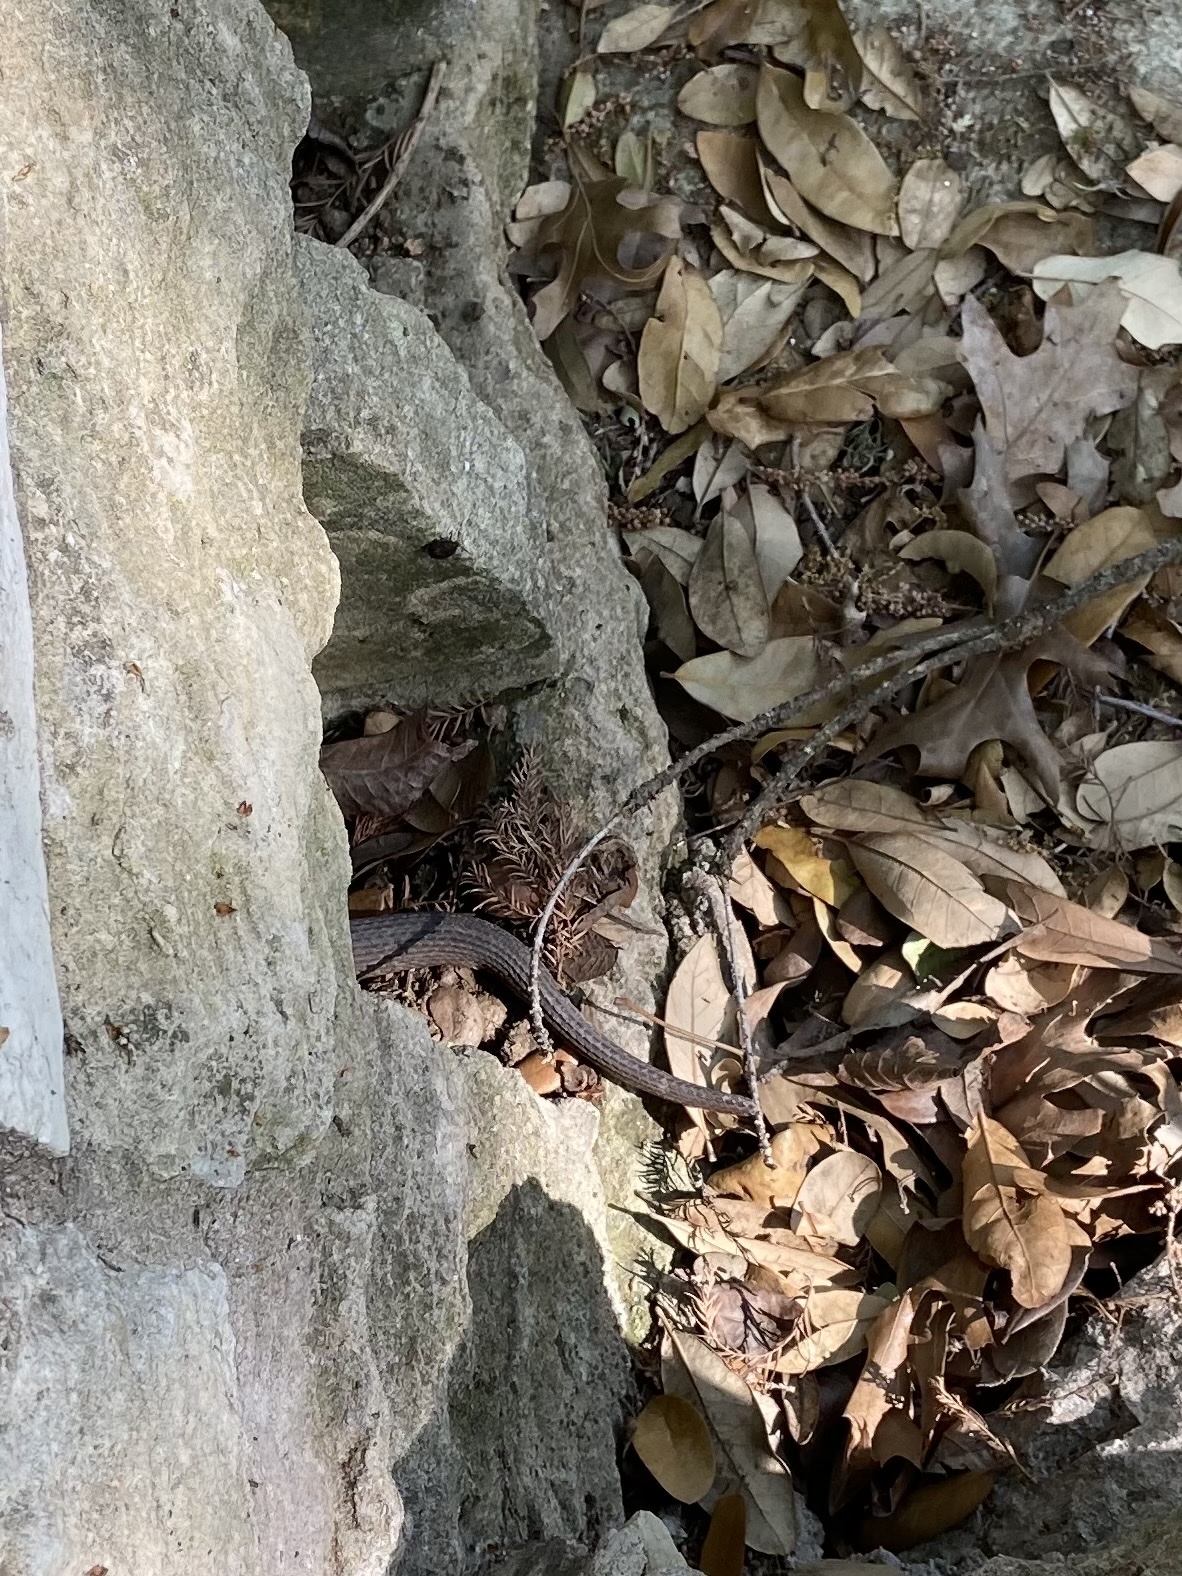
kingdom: Animalia
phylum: Chordata
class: Squamata
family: Colubridae
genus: Nerodia
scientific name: Nerodia erythrogaster
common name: Plainbelly water snake
